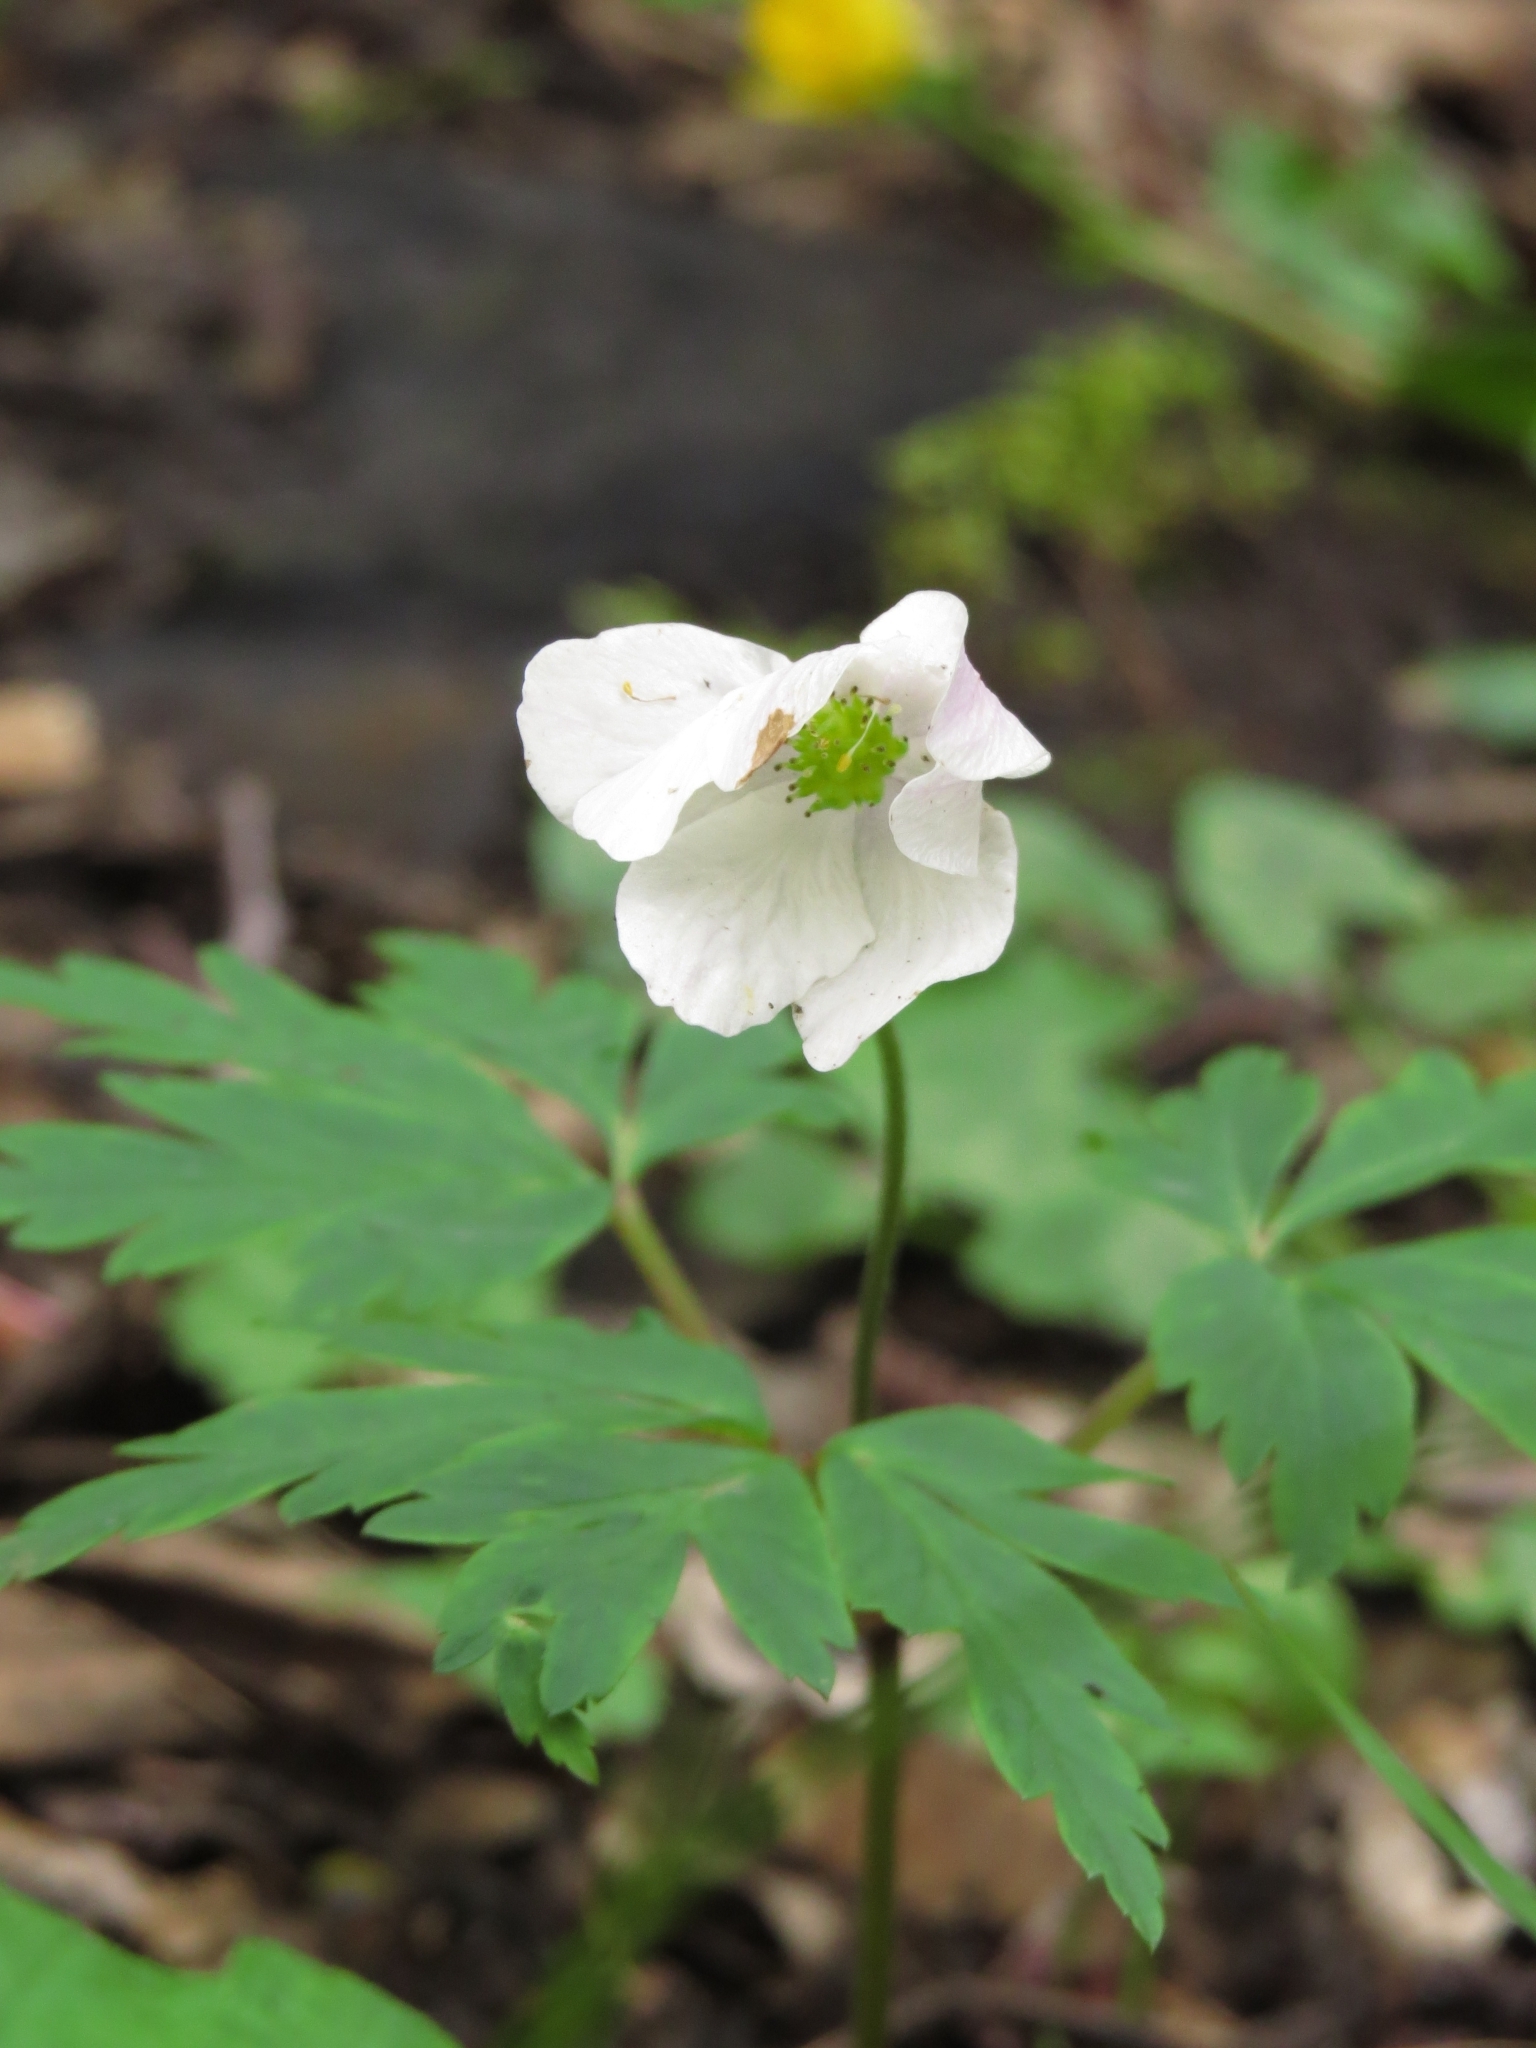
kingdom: Plantae
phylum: Tracheophyta
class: Magnoliopsida
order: Ranunculales
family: Ranunculaceae
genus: Anemone
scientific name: Anemone nemorosa
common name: Wood anemone
